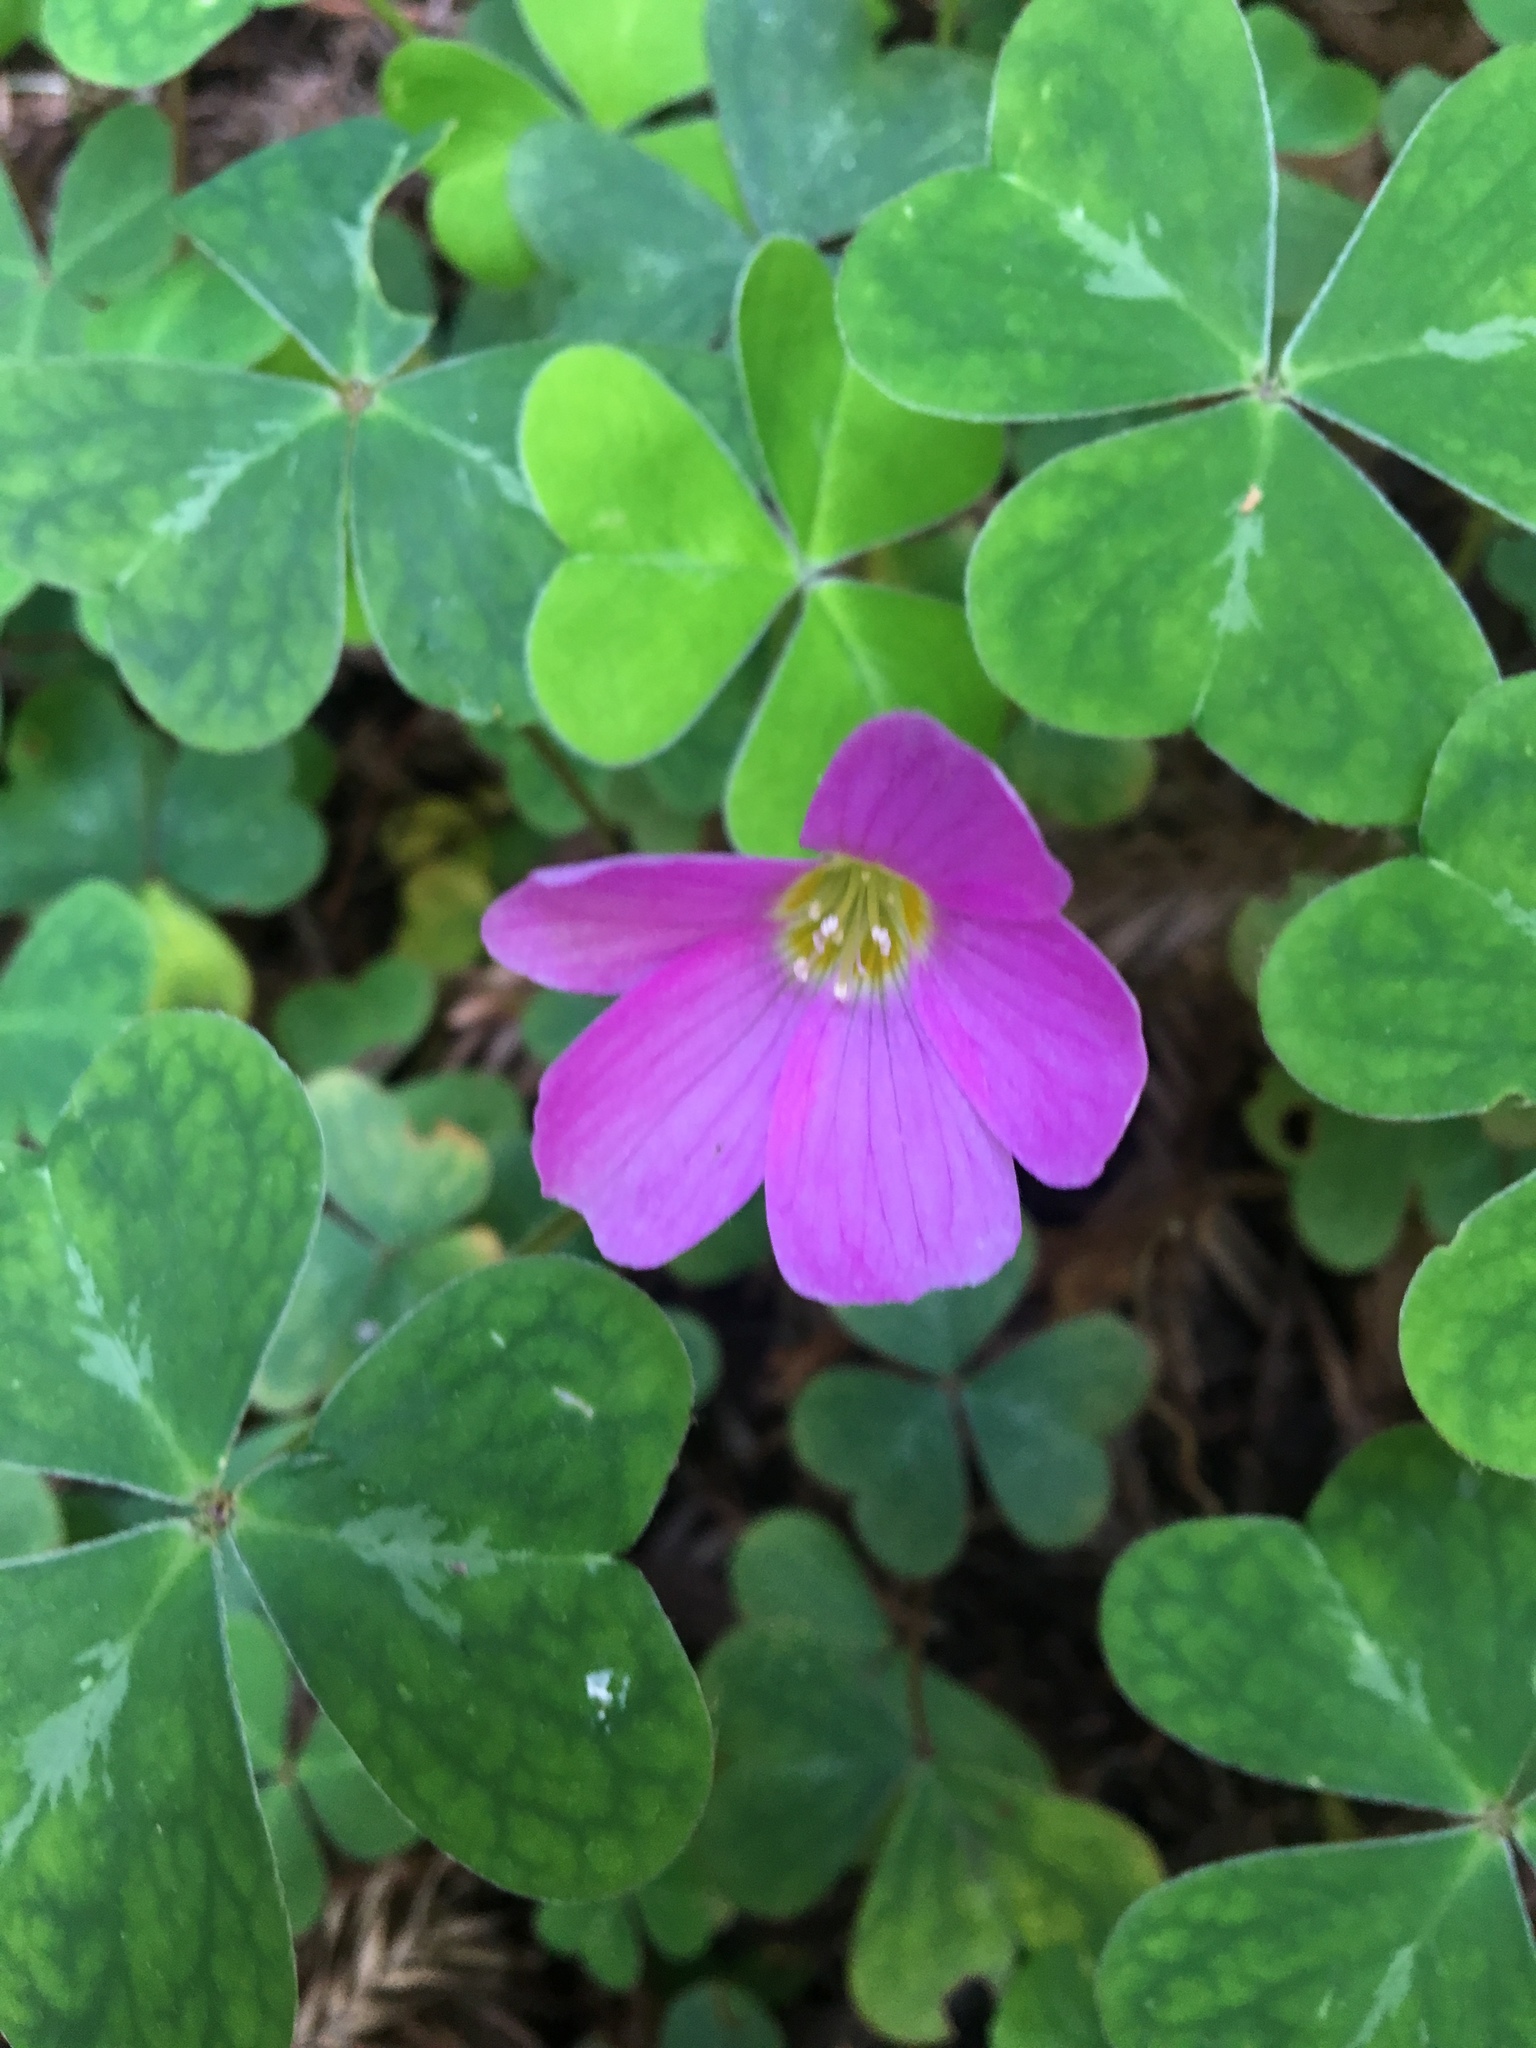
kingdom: Plantae
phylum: Tracheophyta
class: Magnoliopsida
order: Oxalidales
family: Oxalidaceae
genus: Oxalis
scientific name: Oxalis oregana
